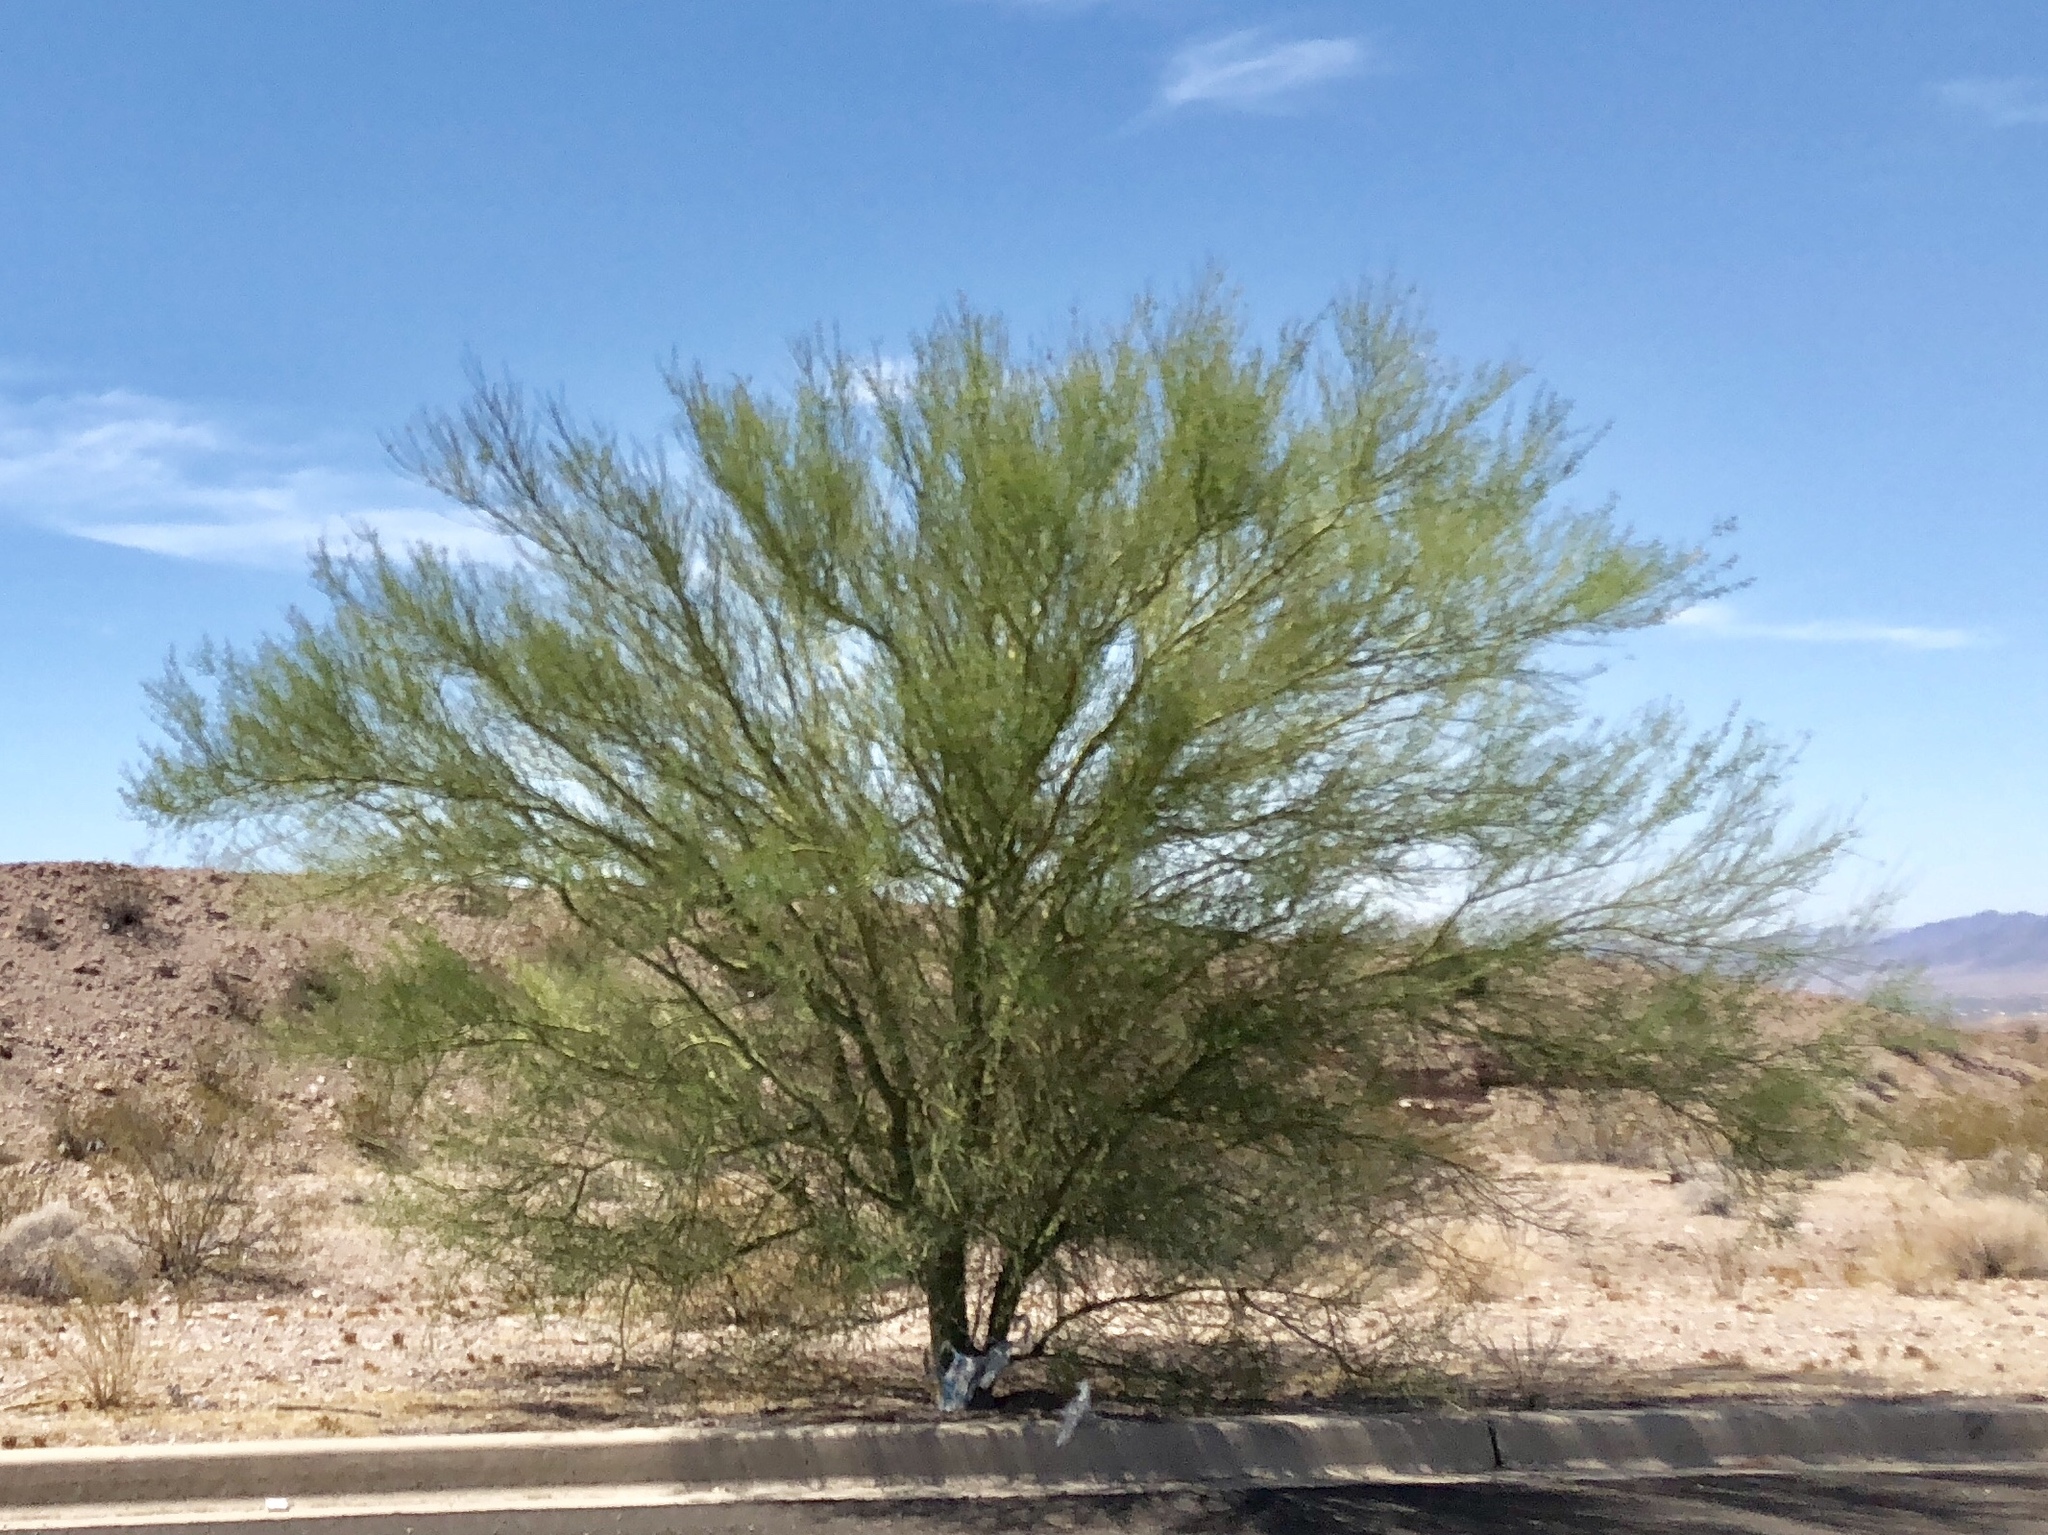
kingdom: Plantae
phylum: Tracheophyta
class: Magnoliopsida
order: Fabales
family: Fabaceae
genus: Parkinsonia
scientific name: Parkinsonia florida
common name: Blue paloverde
